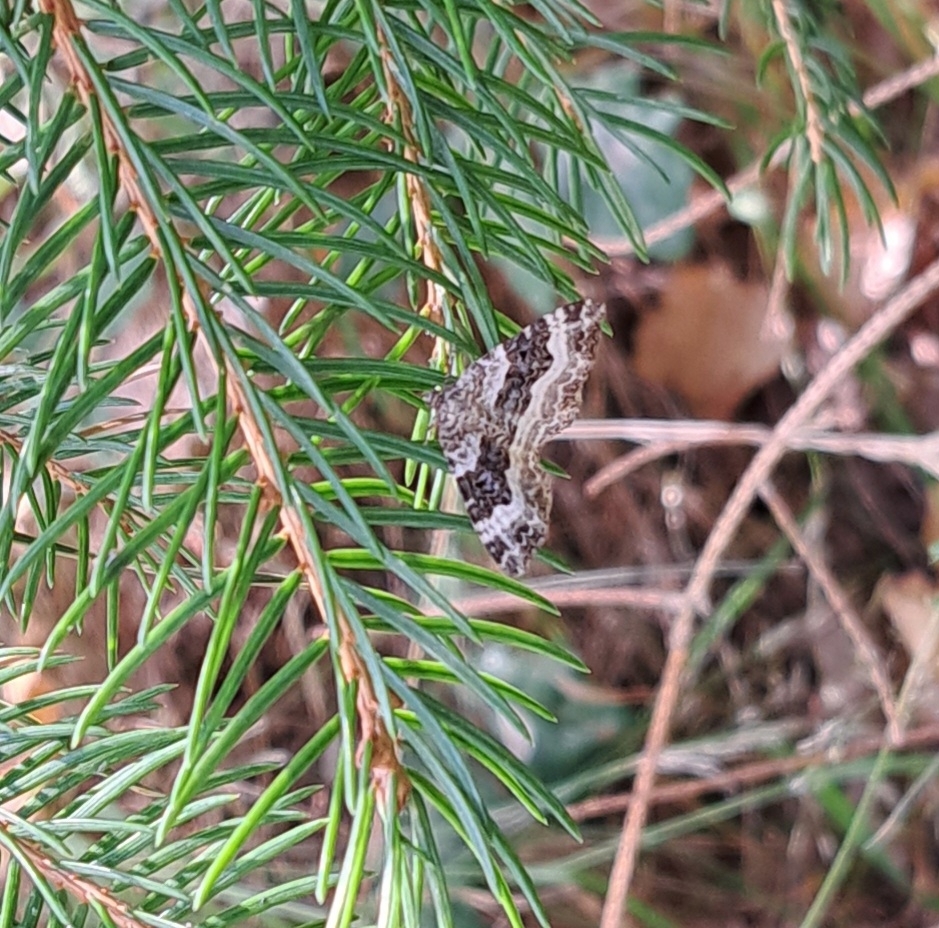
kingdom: Animalia
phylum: Arthropoda
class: Insecta
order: Lepidoptera
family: Geometridae
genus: Epirrhoe
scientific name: Epirrhoe alternata
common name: Common carpet
